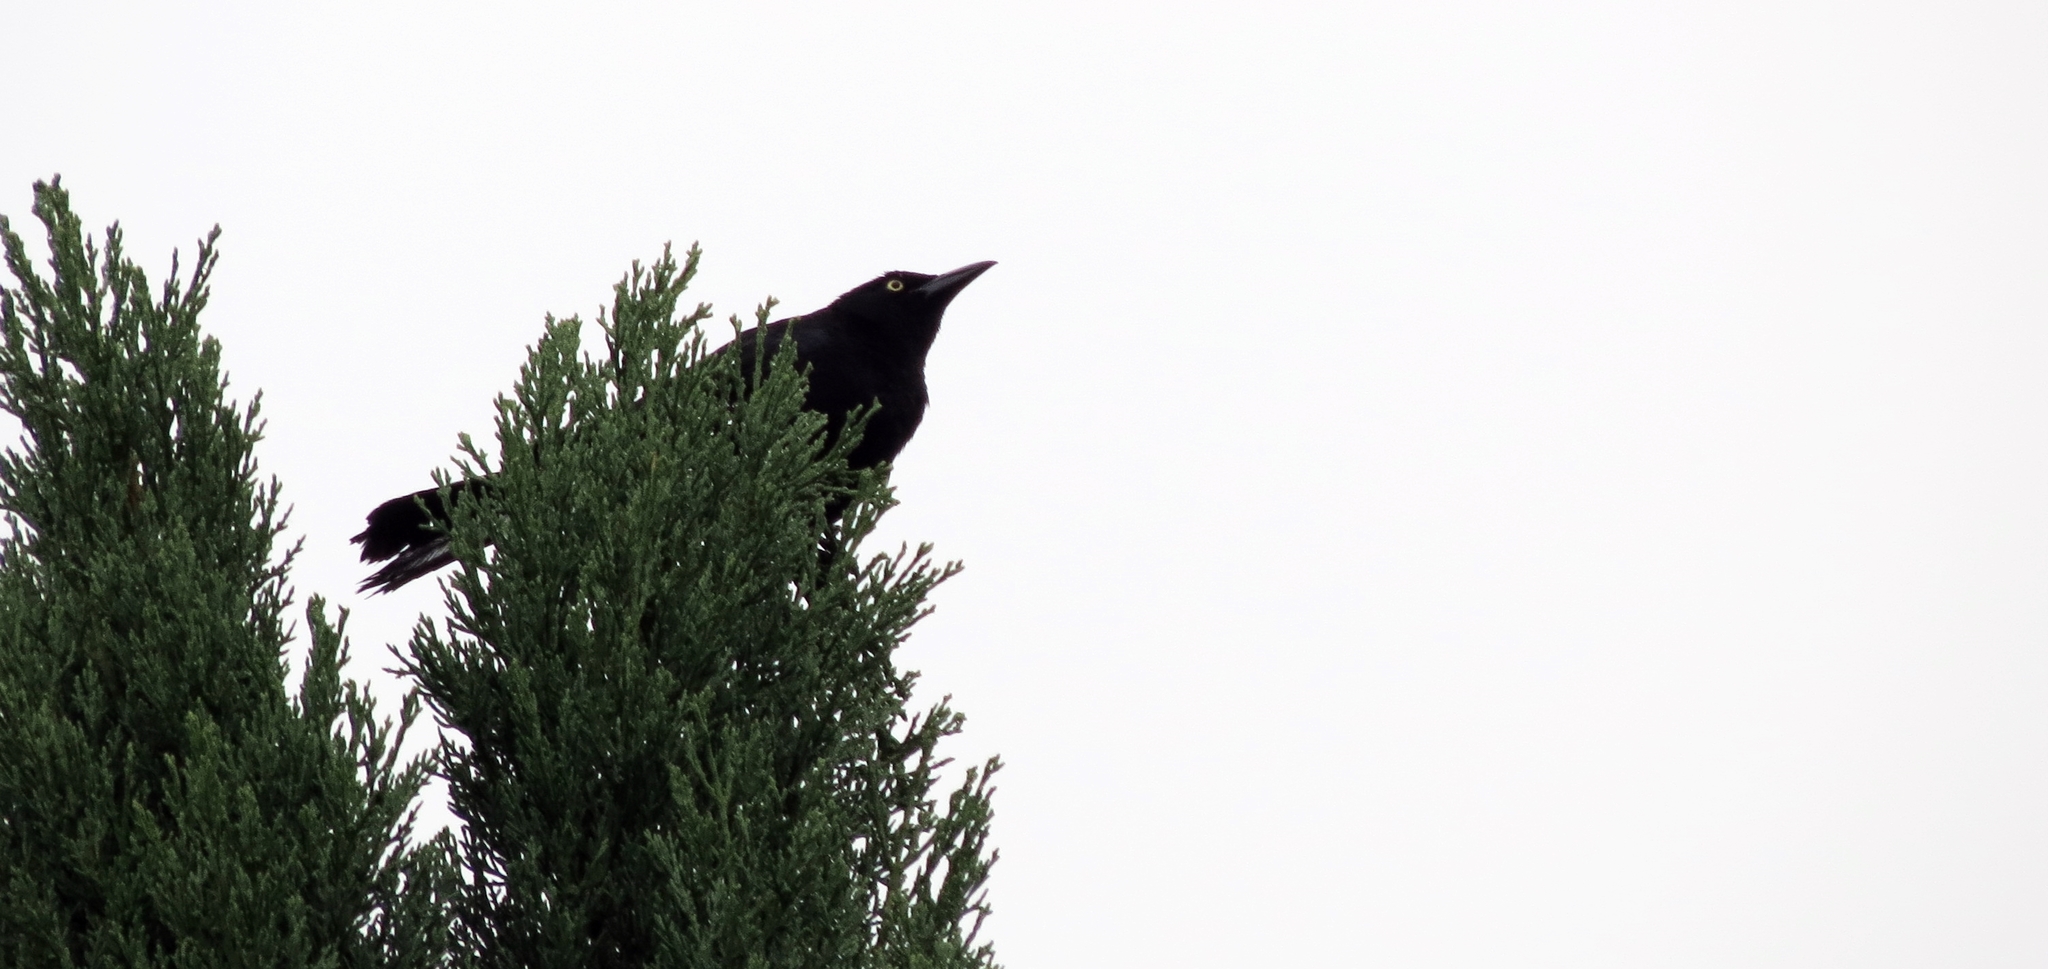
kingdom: Animalia
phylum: Chordata
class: Aves
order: Passeriformes
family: Icteridae
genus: Quiscalus
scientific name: Quiscalus lugubris
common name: Carib grackle
